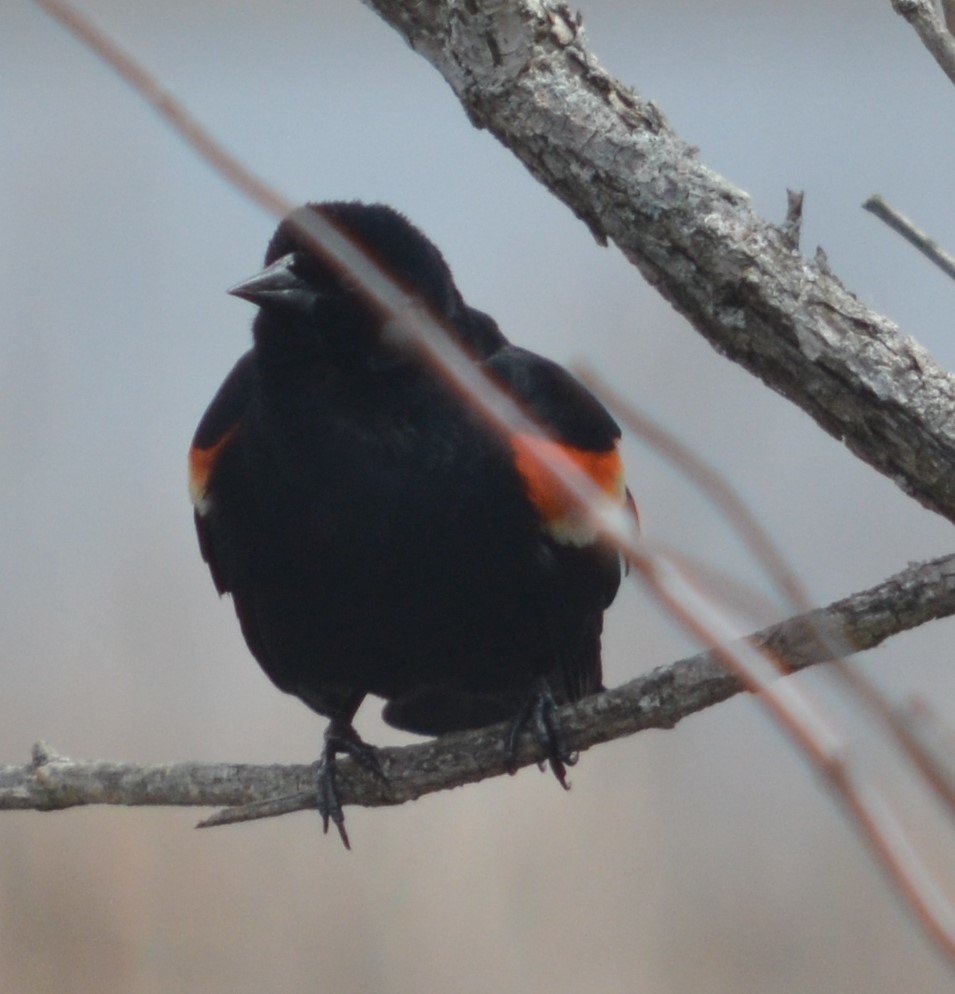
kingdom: Animalia
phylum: Chordata
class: Aves
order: Passeriformes
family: Icteridae
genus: Agelaius
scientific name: Agelaius phoeniceus
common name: Red-winged blackbird
